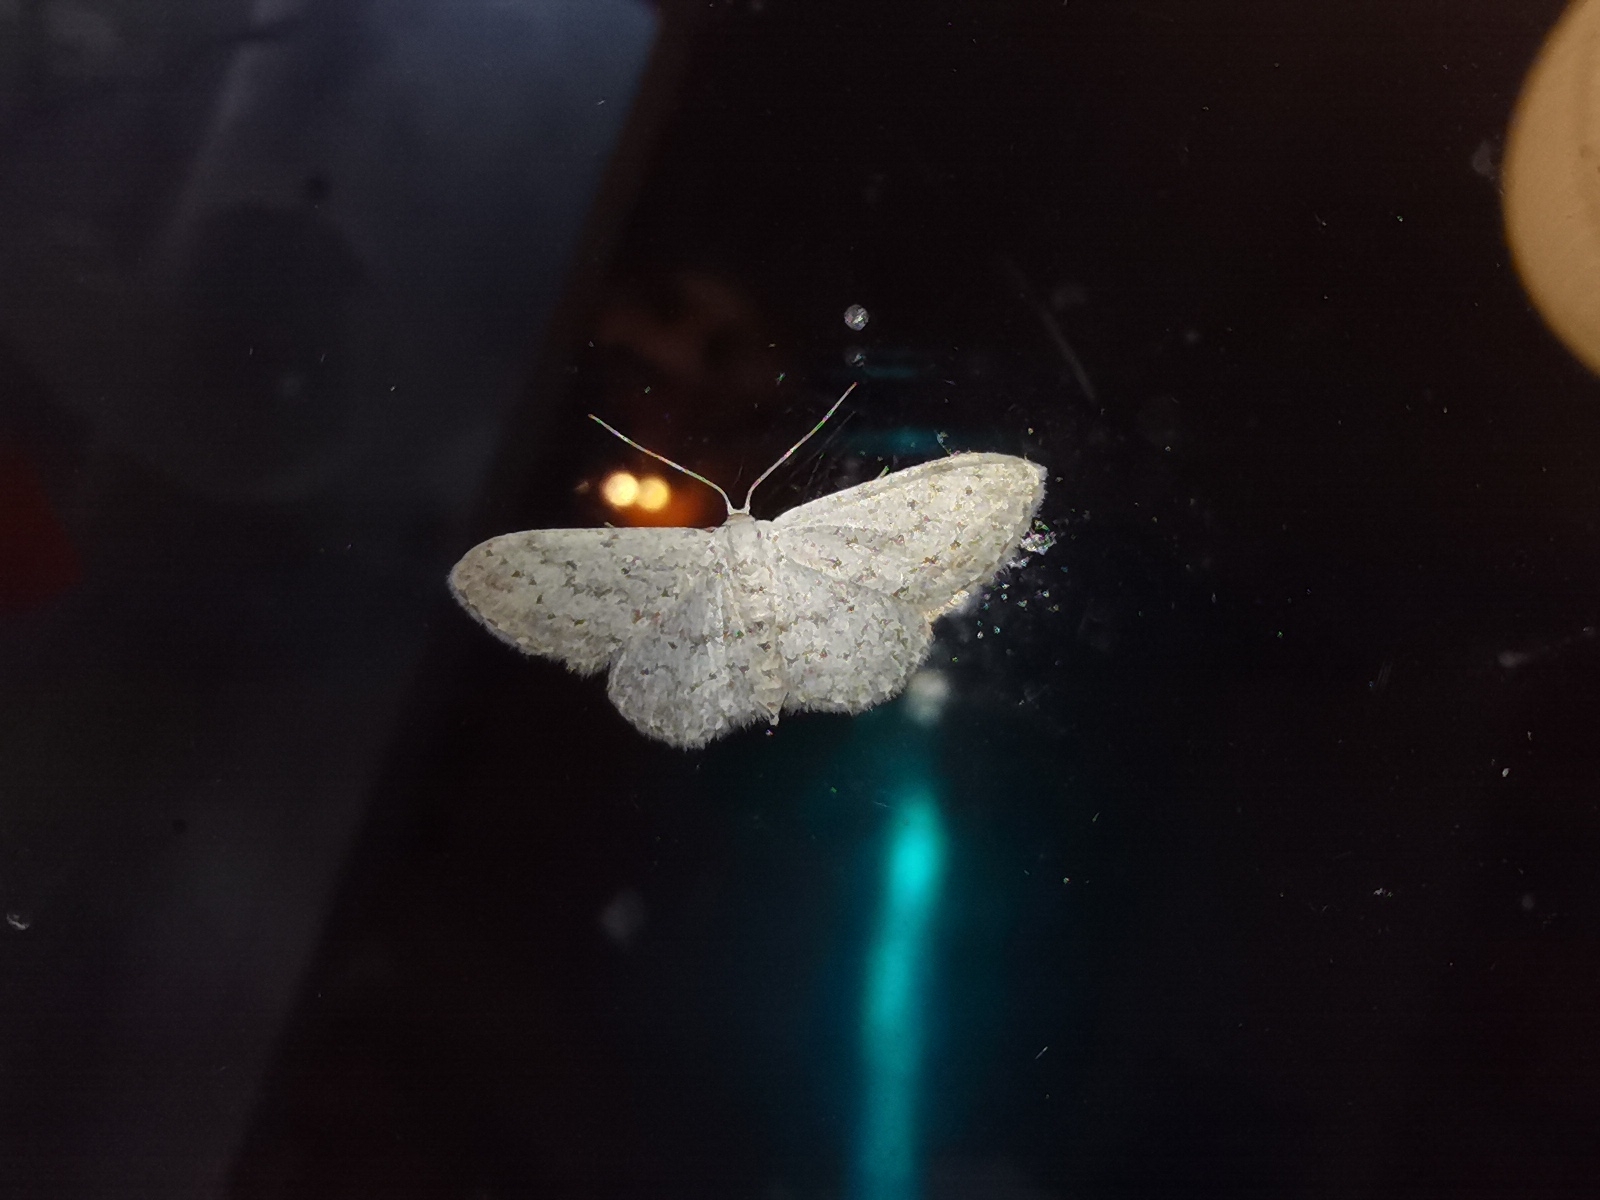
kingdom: Animalia
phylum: Arthropoda
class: Insecta
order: Lepidoptera
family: Geometridae
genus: Idaea
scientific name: Idaea seriata
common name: Small dusty wave
